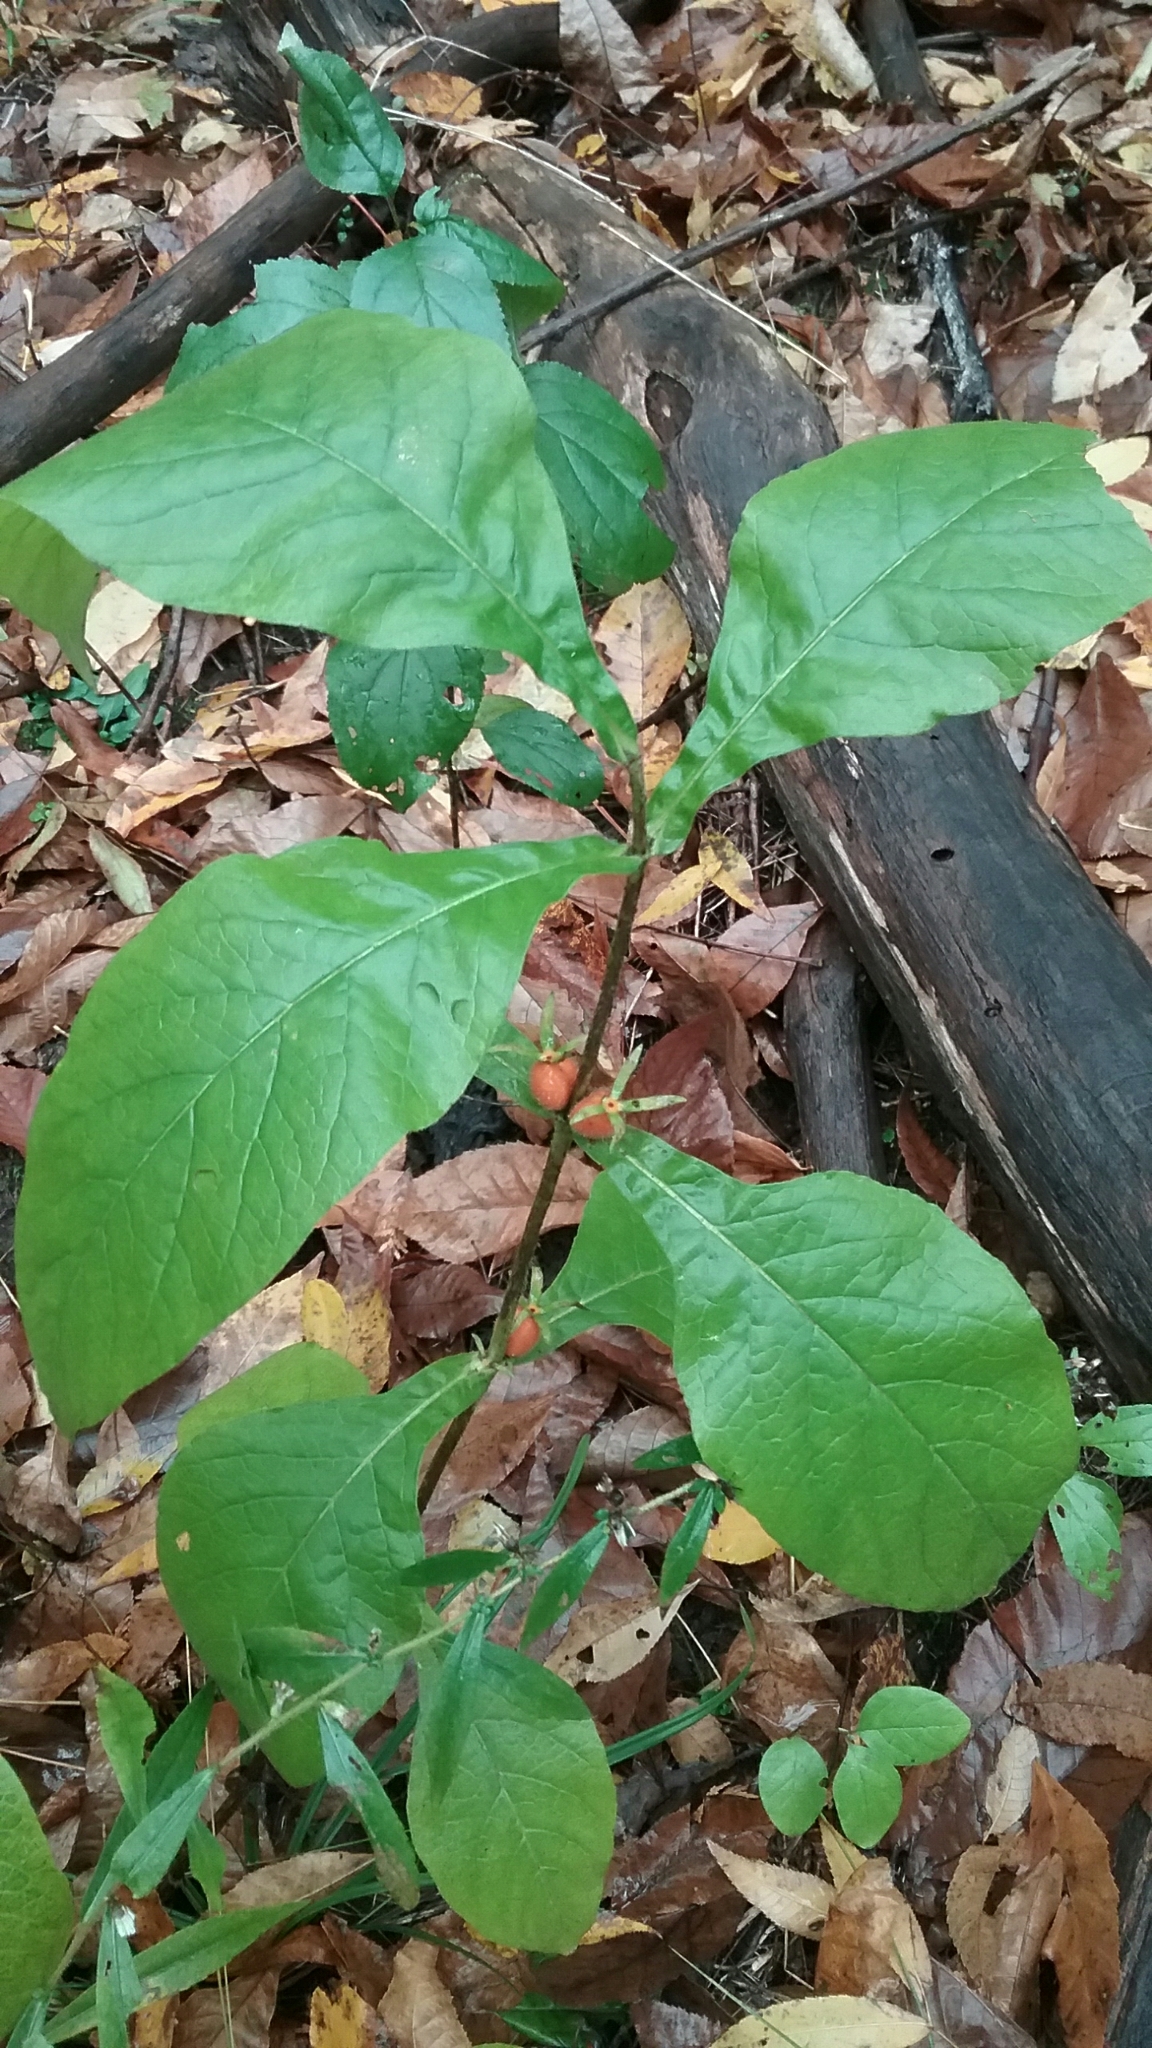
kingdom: Plantae
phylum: Tracheophyta
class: Magnoliopsida
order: Dipsacales
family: Caprifoliaceae
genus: Triosteum
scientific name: Triosteum aurantiacum
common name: Coffee tinker's-weed
